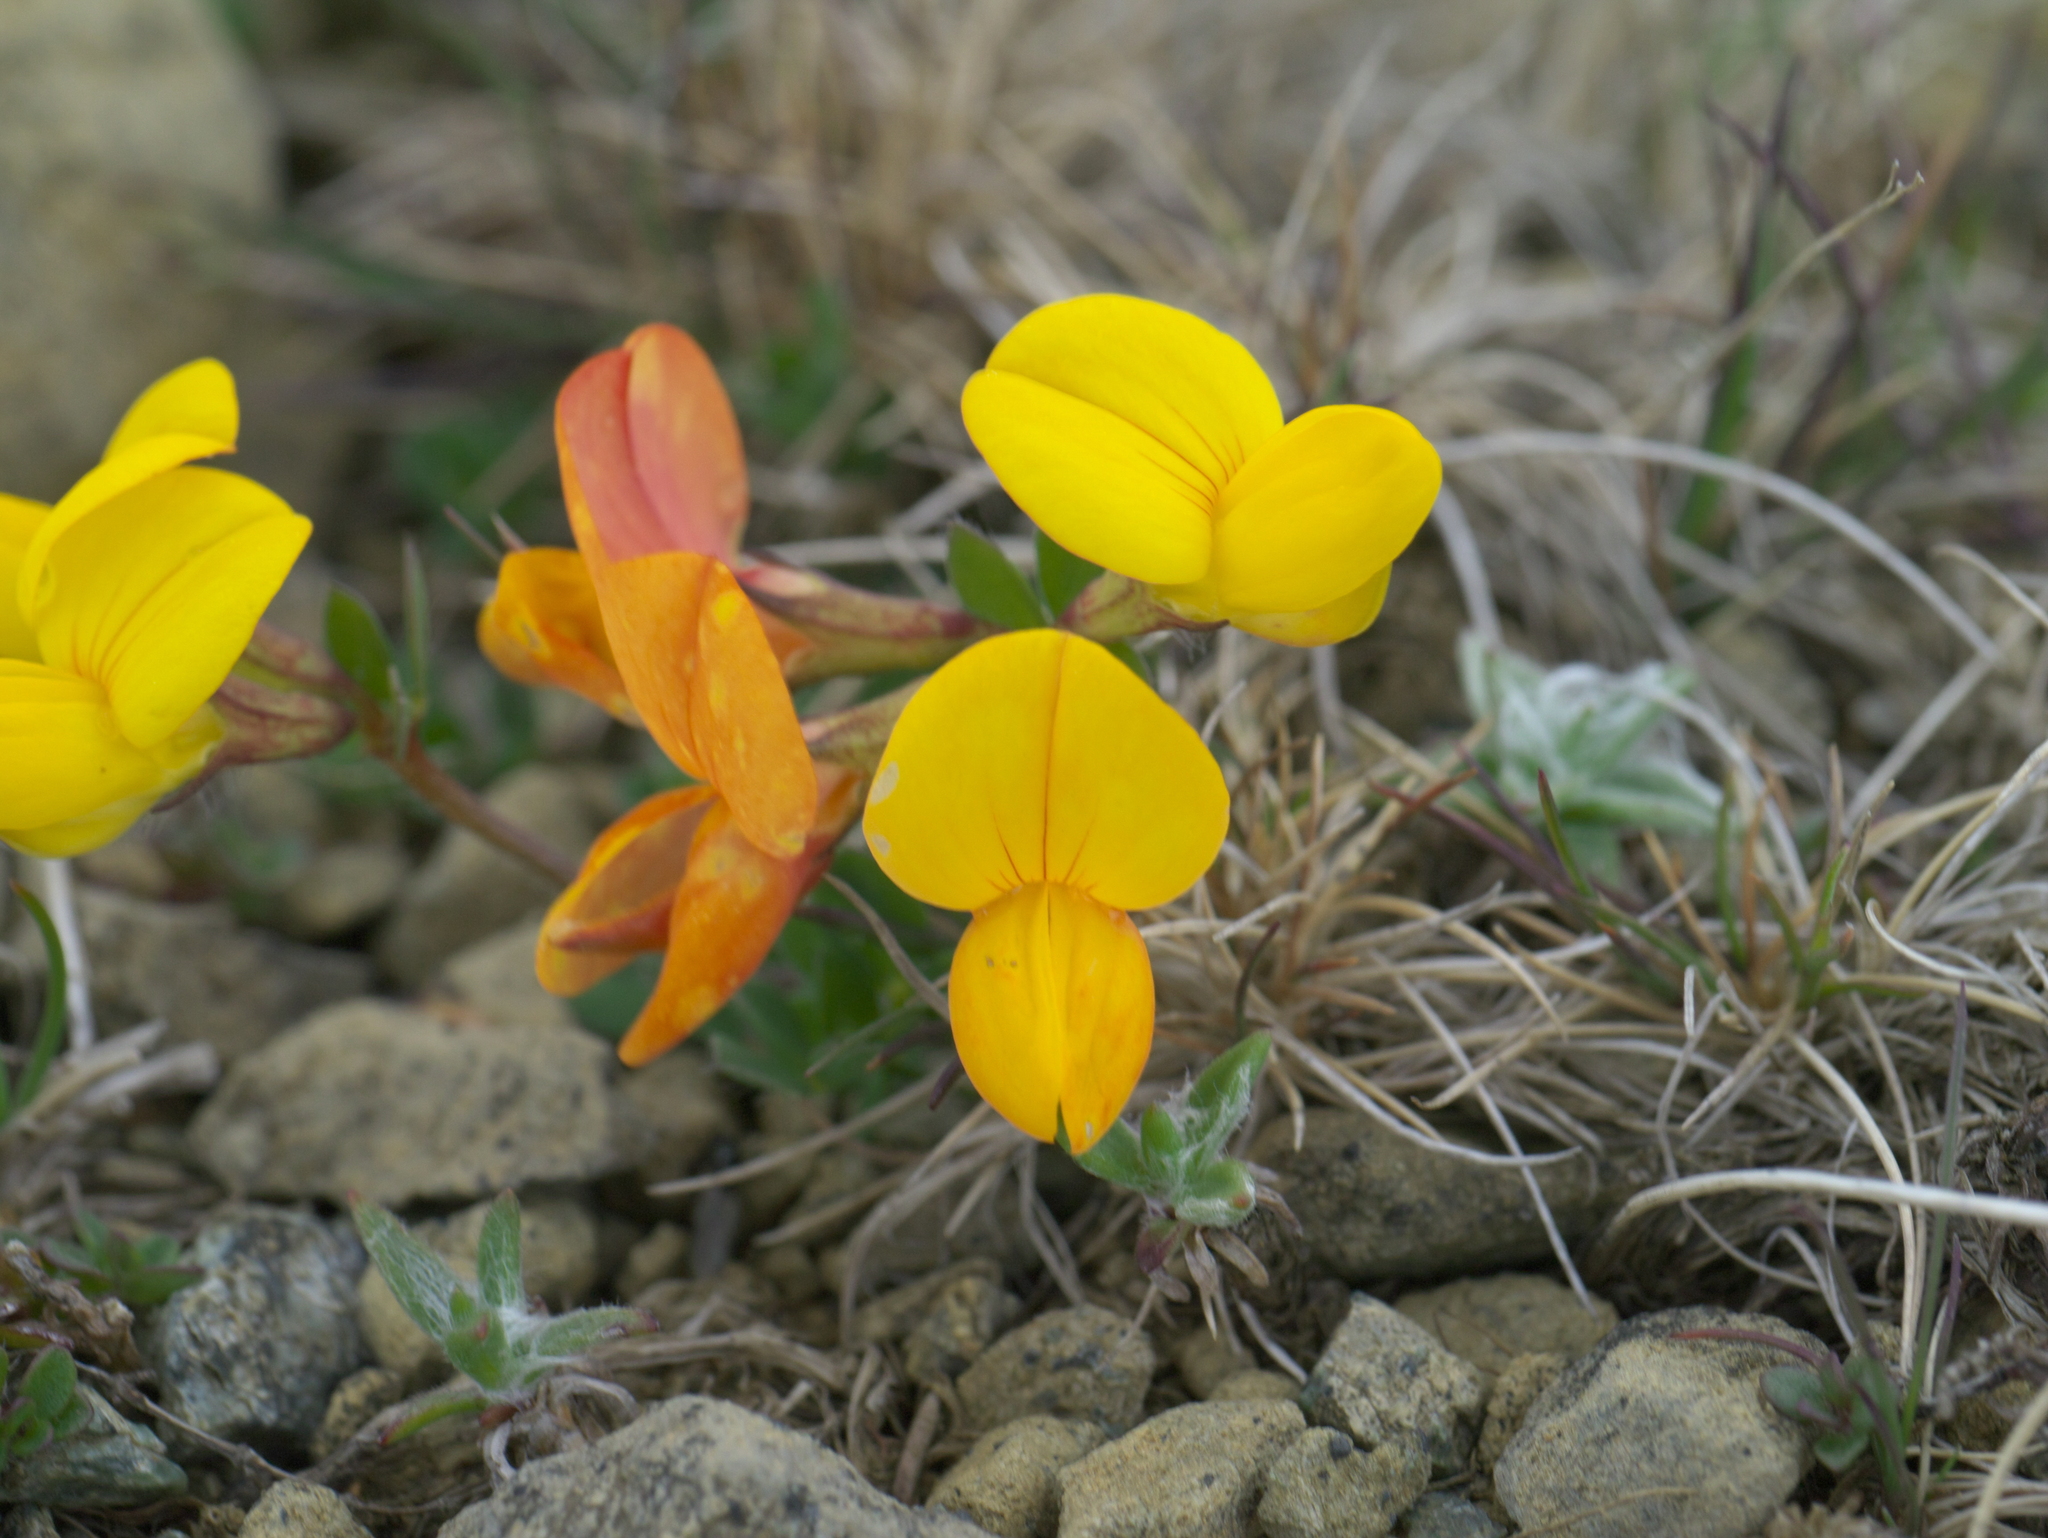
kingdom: Plantae
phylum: Tracheophyta
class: Magnoliopsida
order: Fabales
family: Fabaceae
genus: Lotus
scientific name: Lotus corniculatus
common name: Common bird's-foot-trefoil
